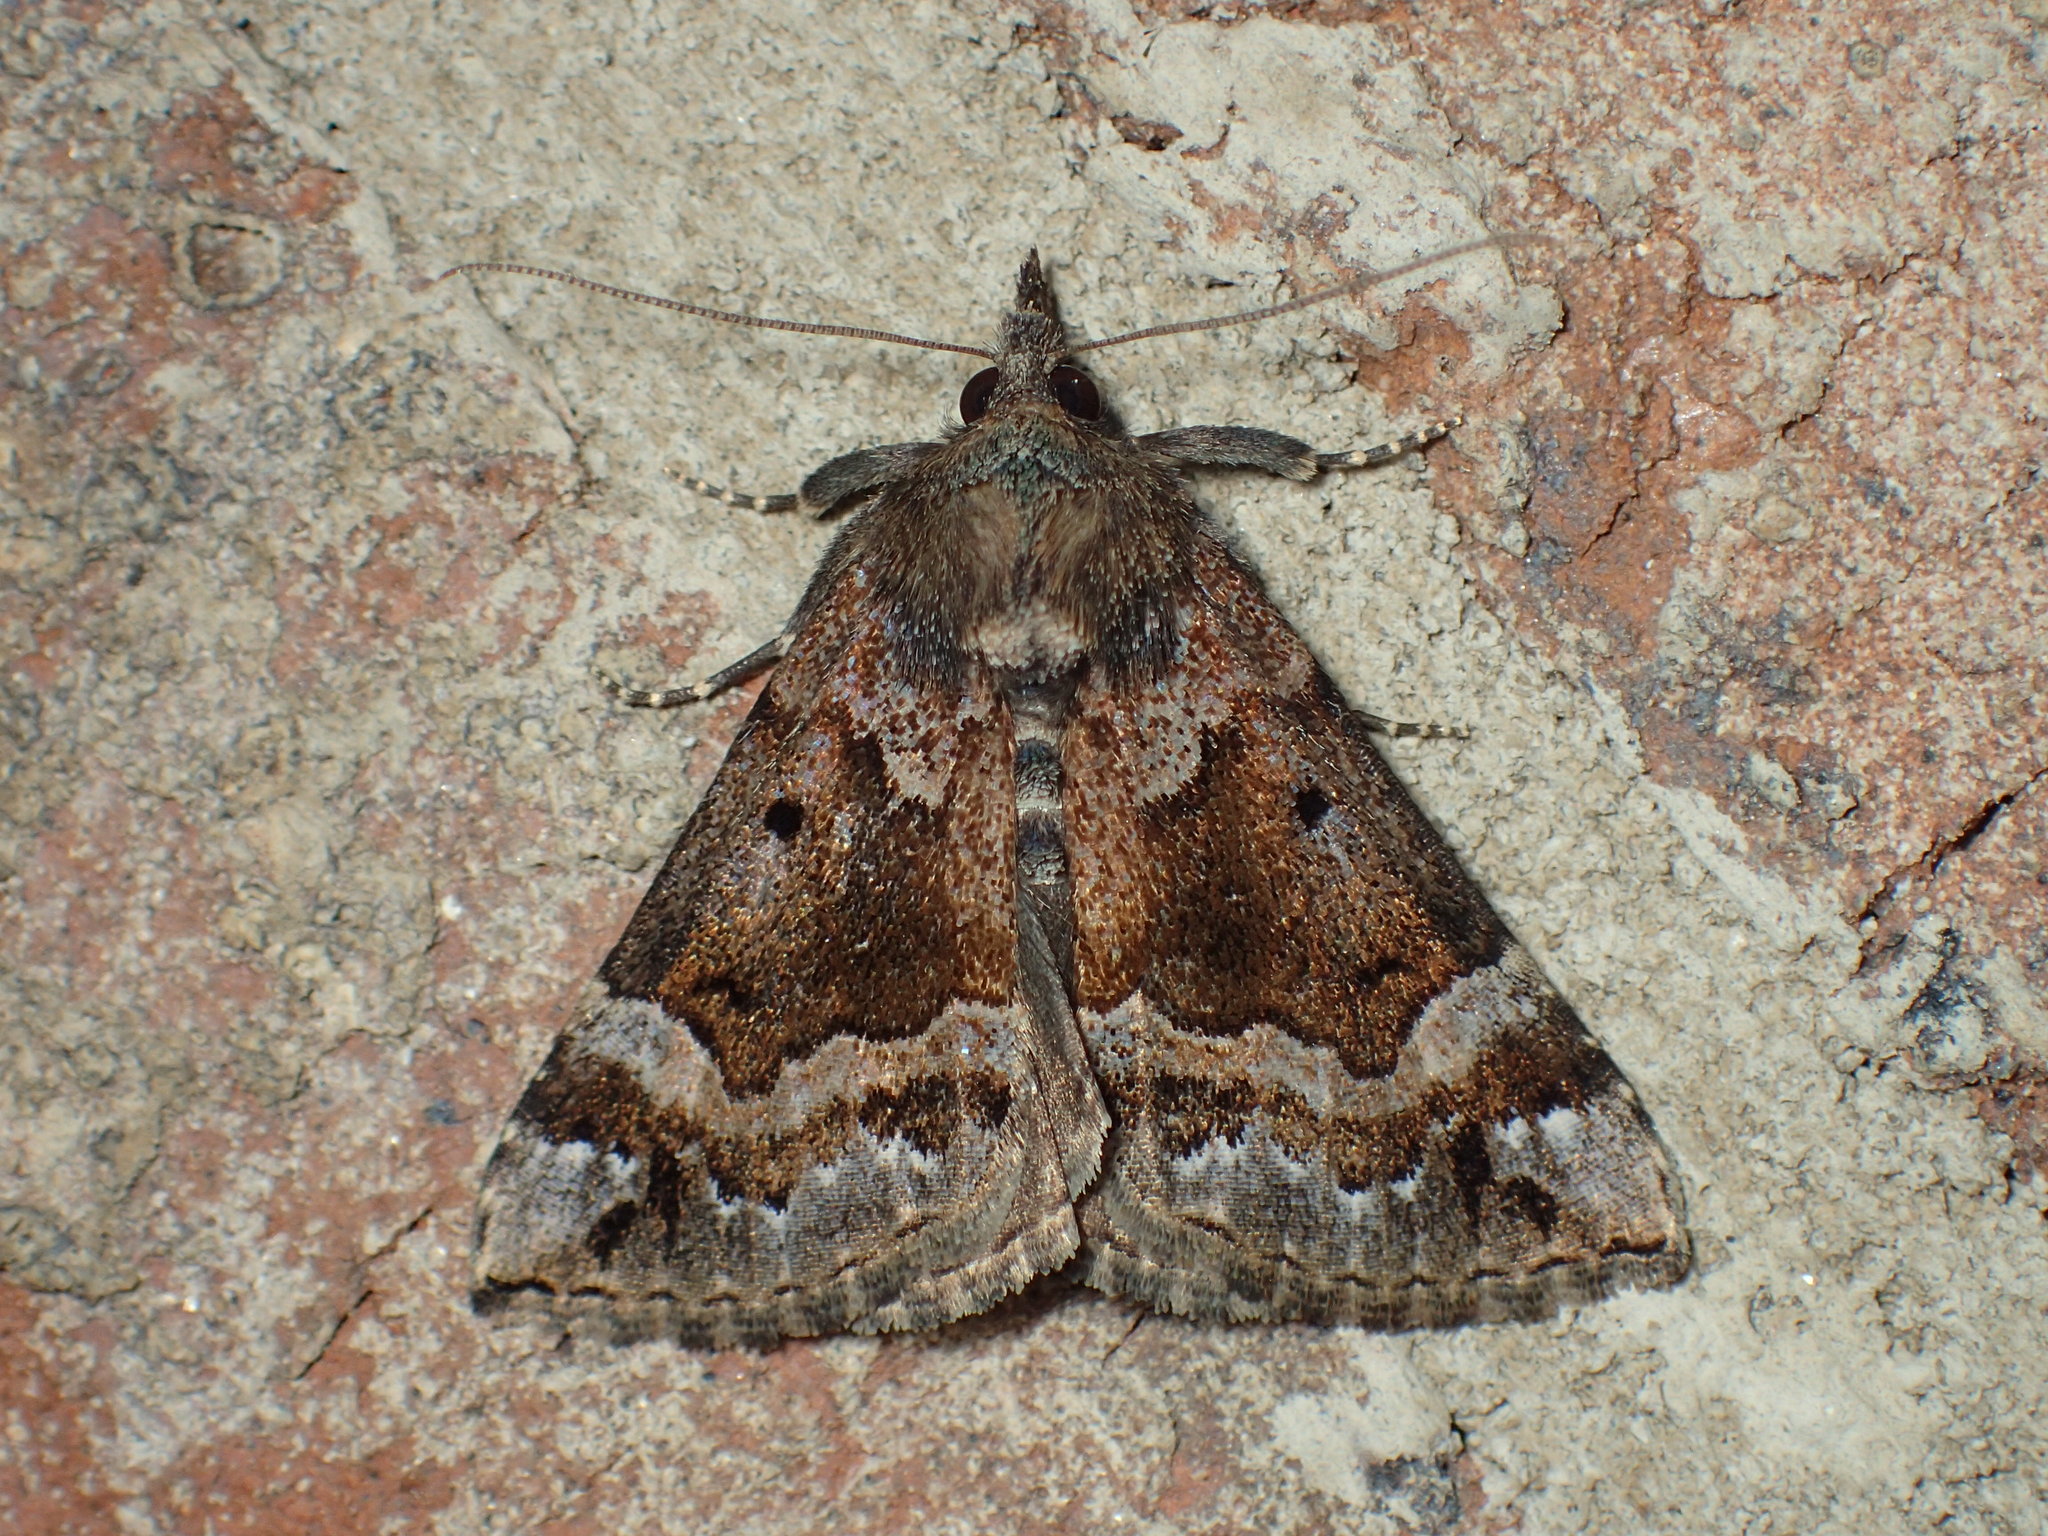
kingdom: Animalia
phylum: Arthropoda
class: Insecta
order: Lepidoptera
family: Erebidae
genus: Hypena
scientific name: Hypena palparia
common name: Mottled bomolocha moth
